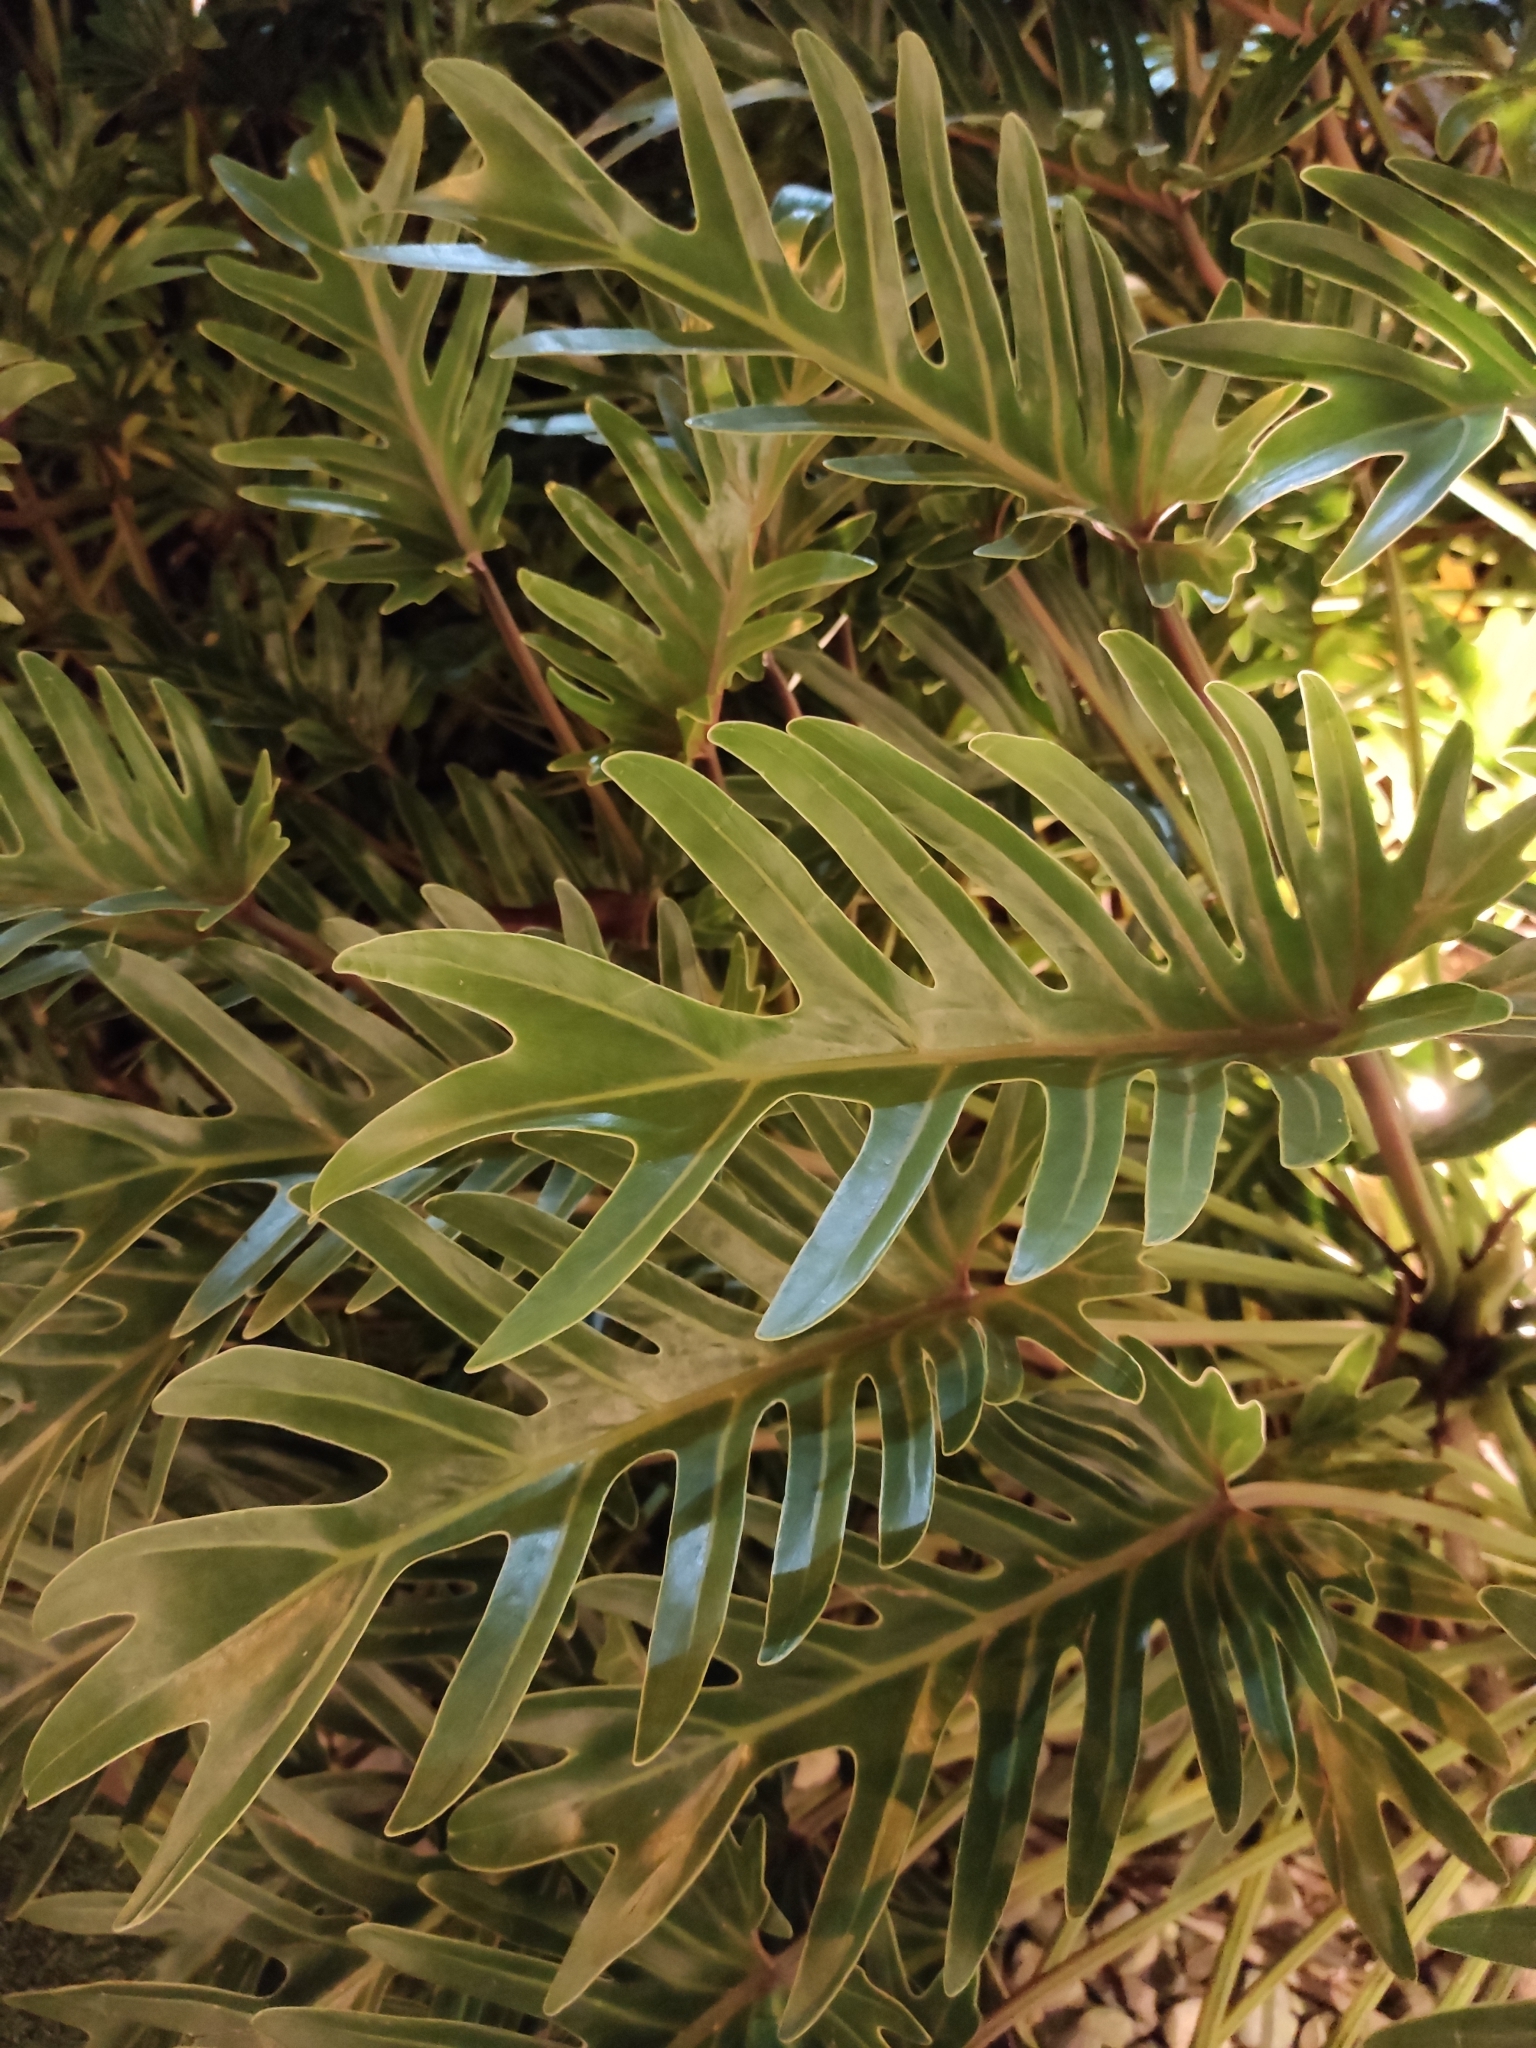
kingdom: Plantae
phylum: Tracheophyta
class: Liliopsida
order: Alismatales
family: Araceae
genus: Thaumatophyllum
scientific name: Thaumatophyllum xanadu
